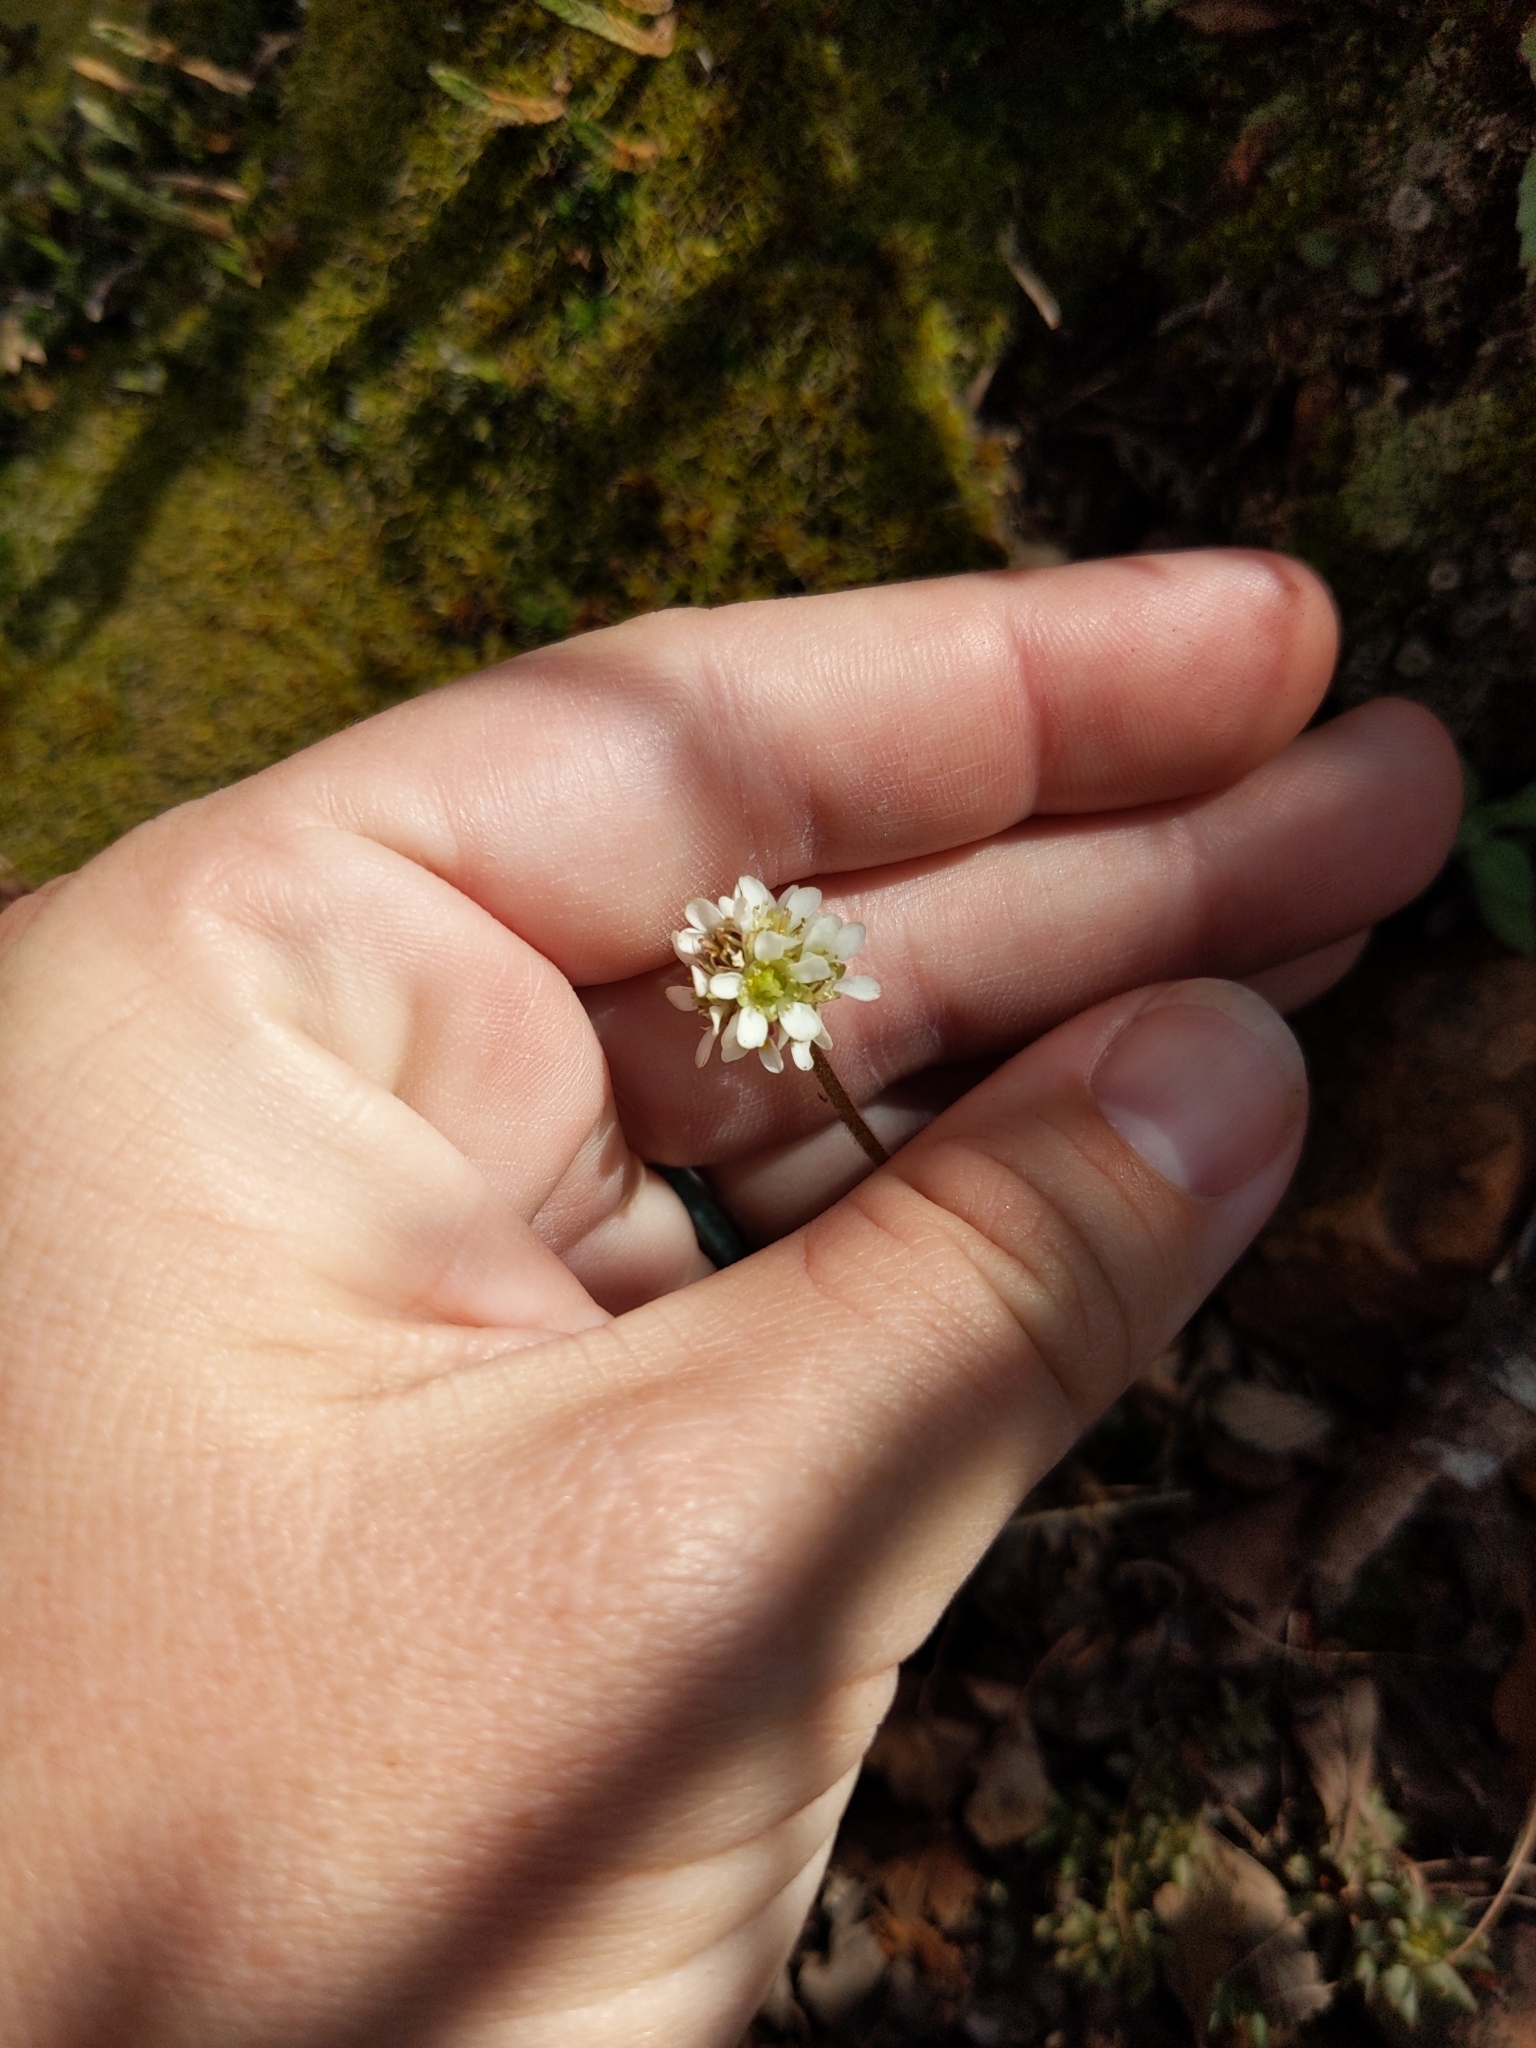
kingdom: Plantae
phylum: Tracheophyta
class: Magnoliopsida
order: Saxifragales
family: Saxifragaceae
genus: Micranthes
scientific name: Micranthes rhomboidea
